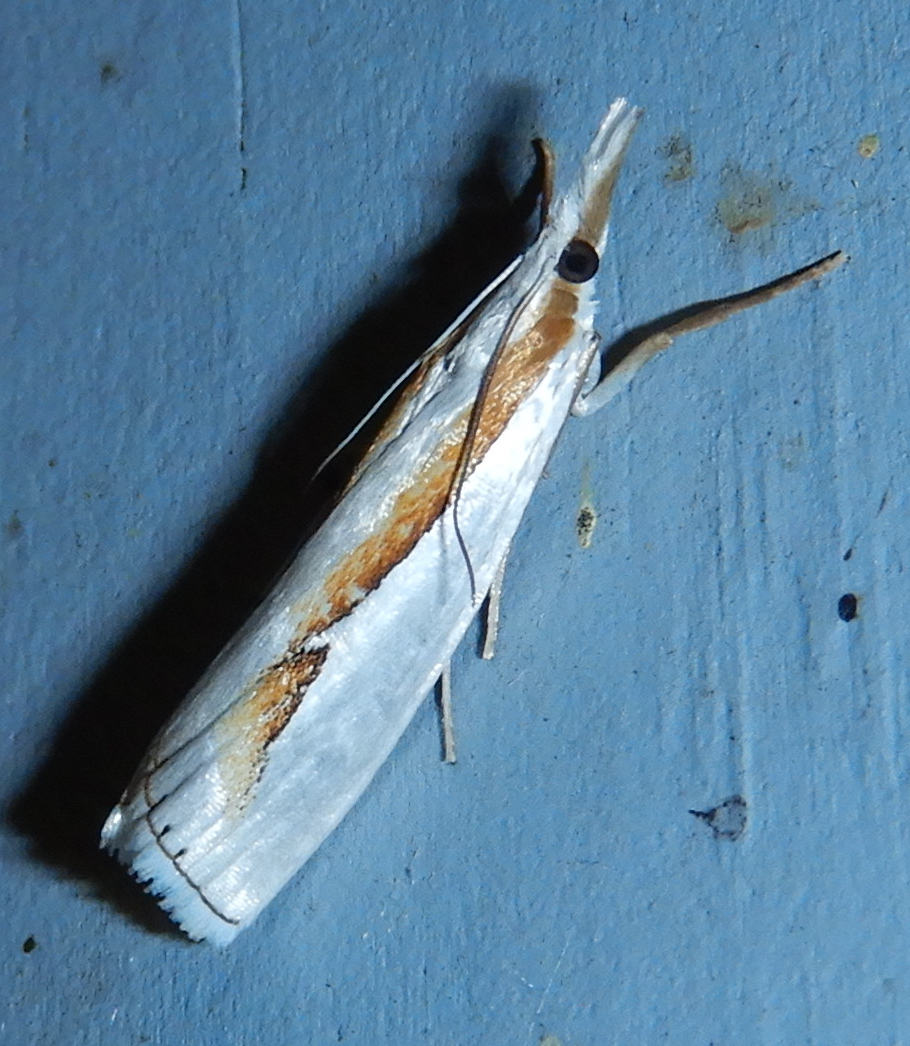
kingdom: Animalia
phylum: Arthropoda
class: Insecta
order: Lepidoptera
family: Crambidae
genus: Crambus
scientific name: Crambus girardellus
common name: Girard's grass-veneer
